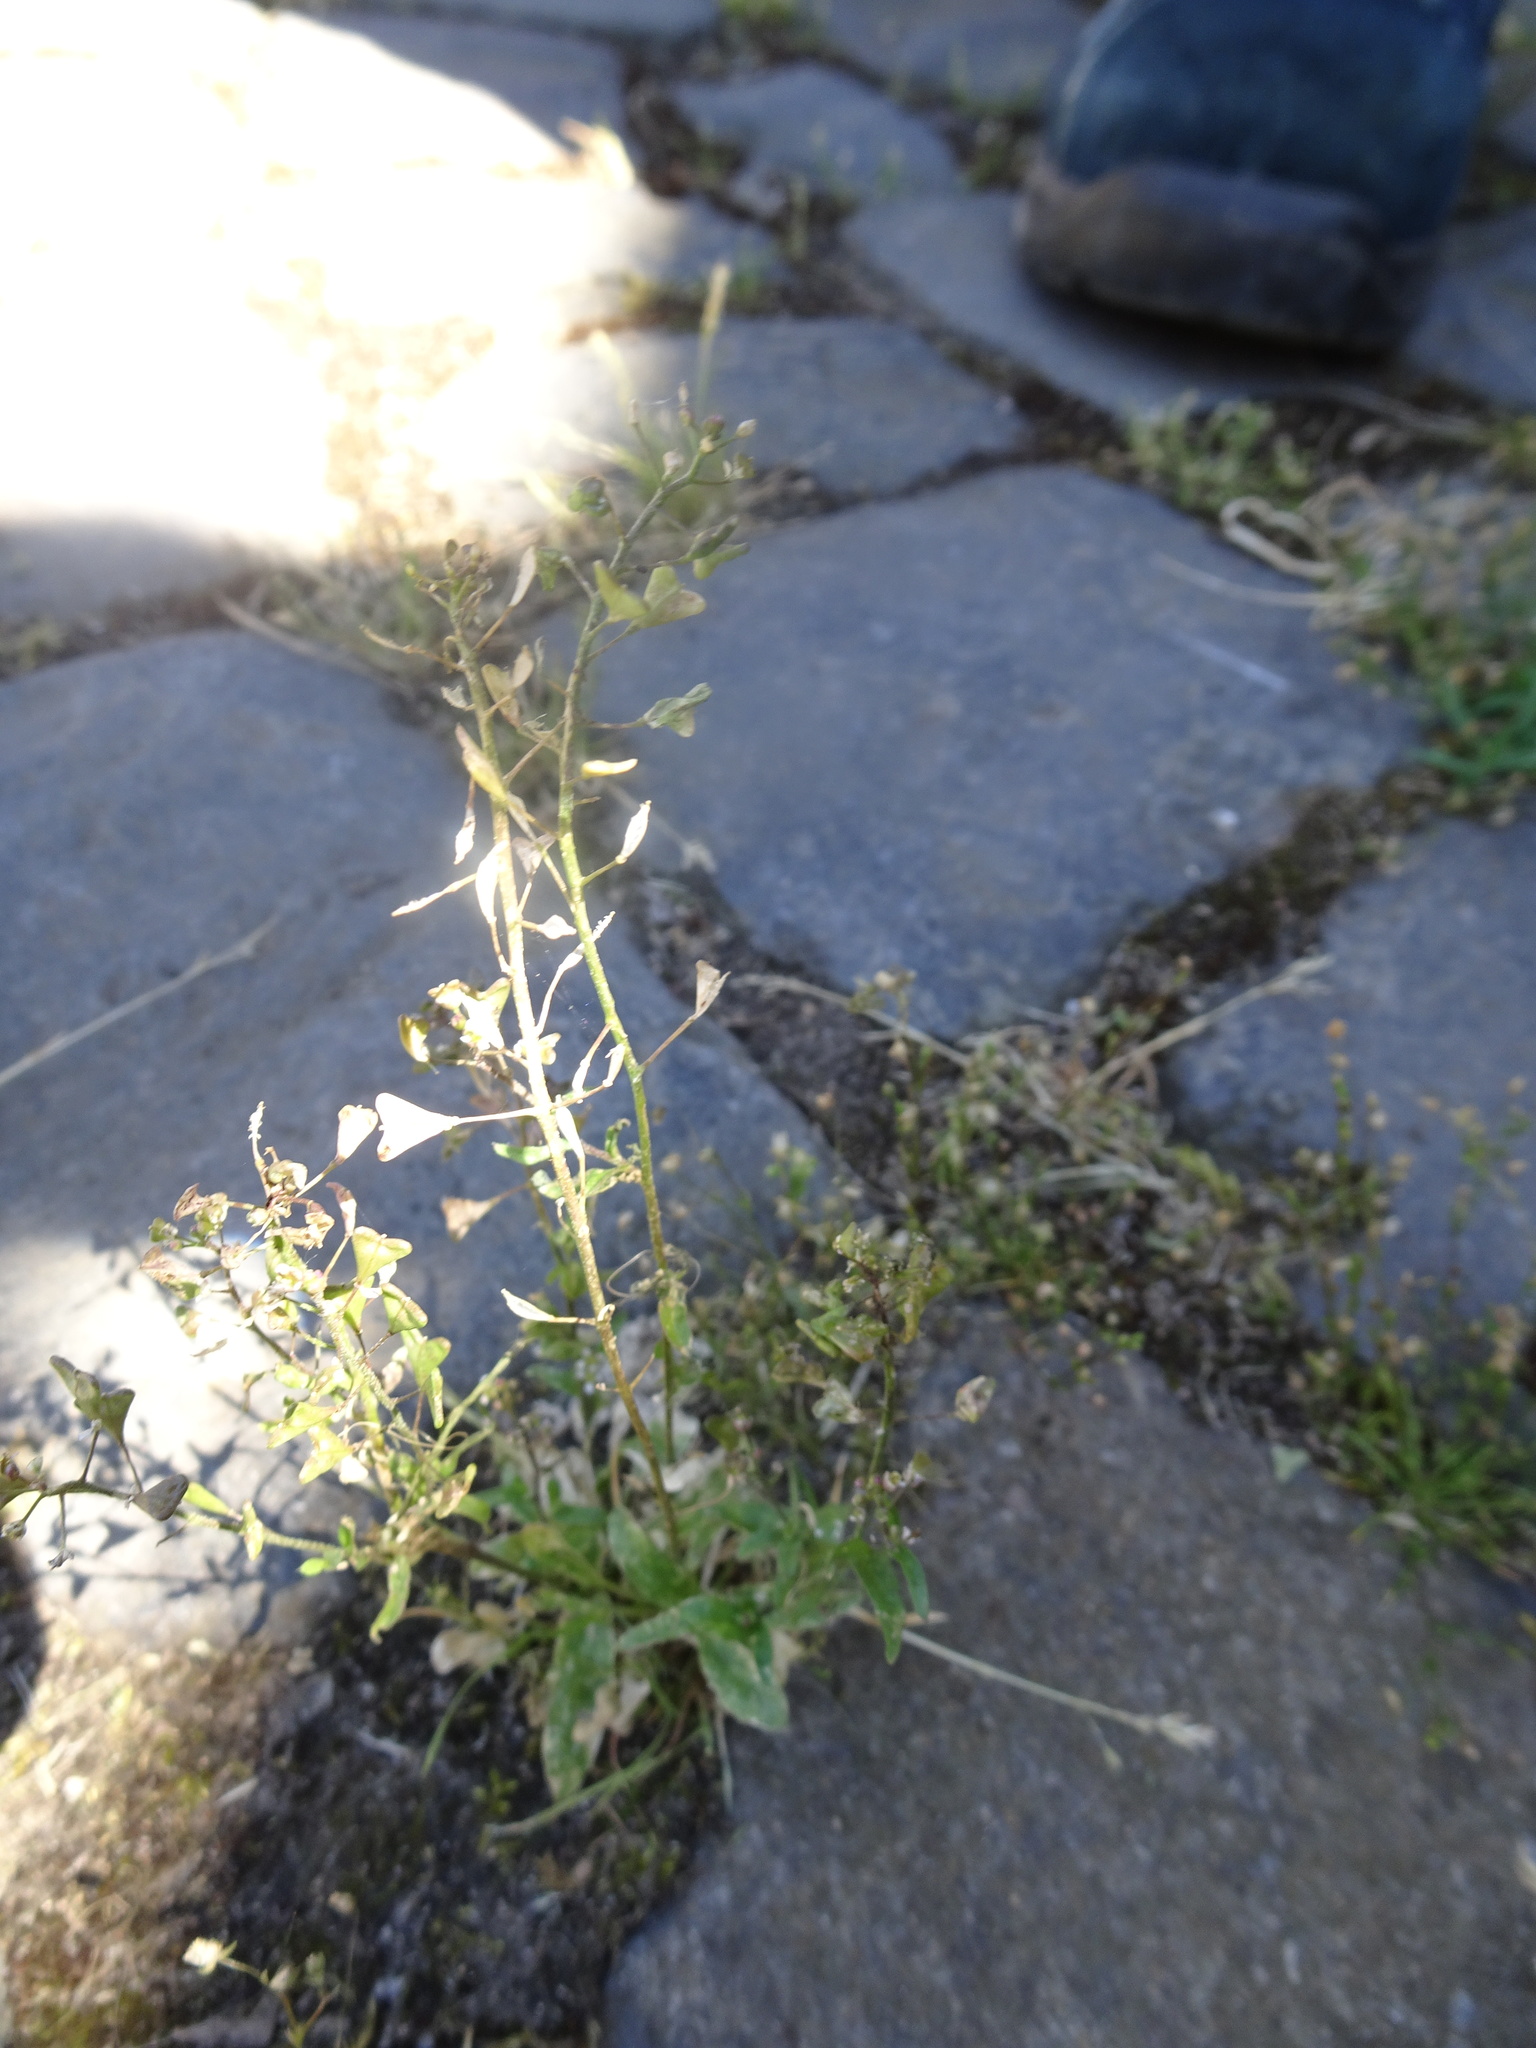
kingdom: Plantae
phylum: Tracheophyta
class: Magnoliopsida
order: Brassicales
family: Brassicaceae
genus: Capsella
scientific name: Capsella bursa-pastoris
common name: Shepherd's purse
